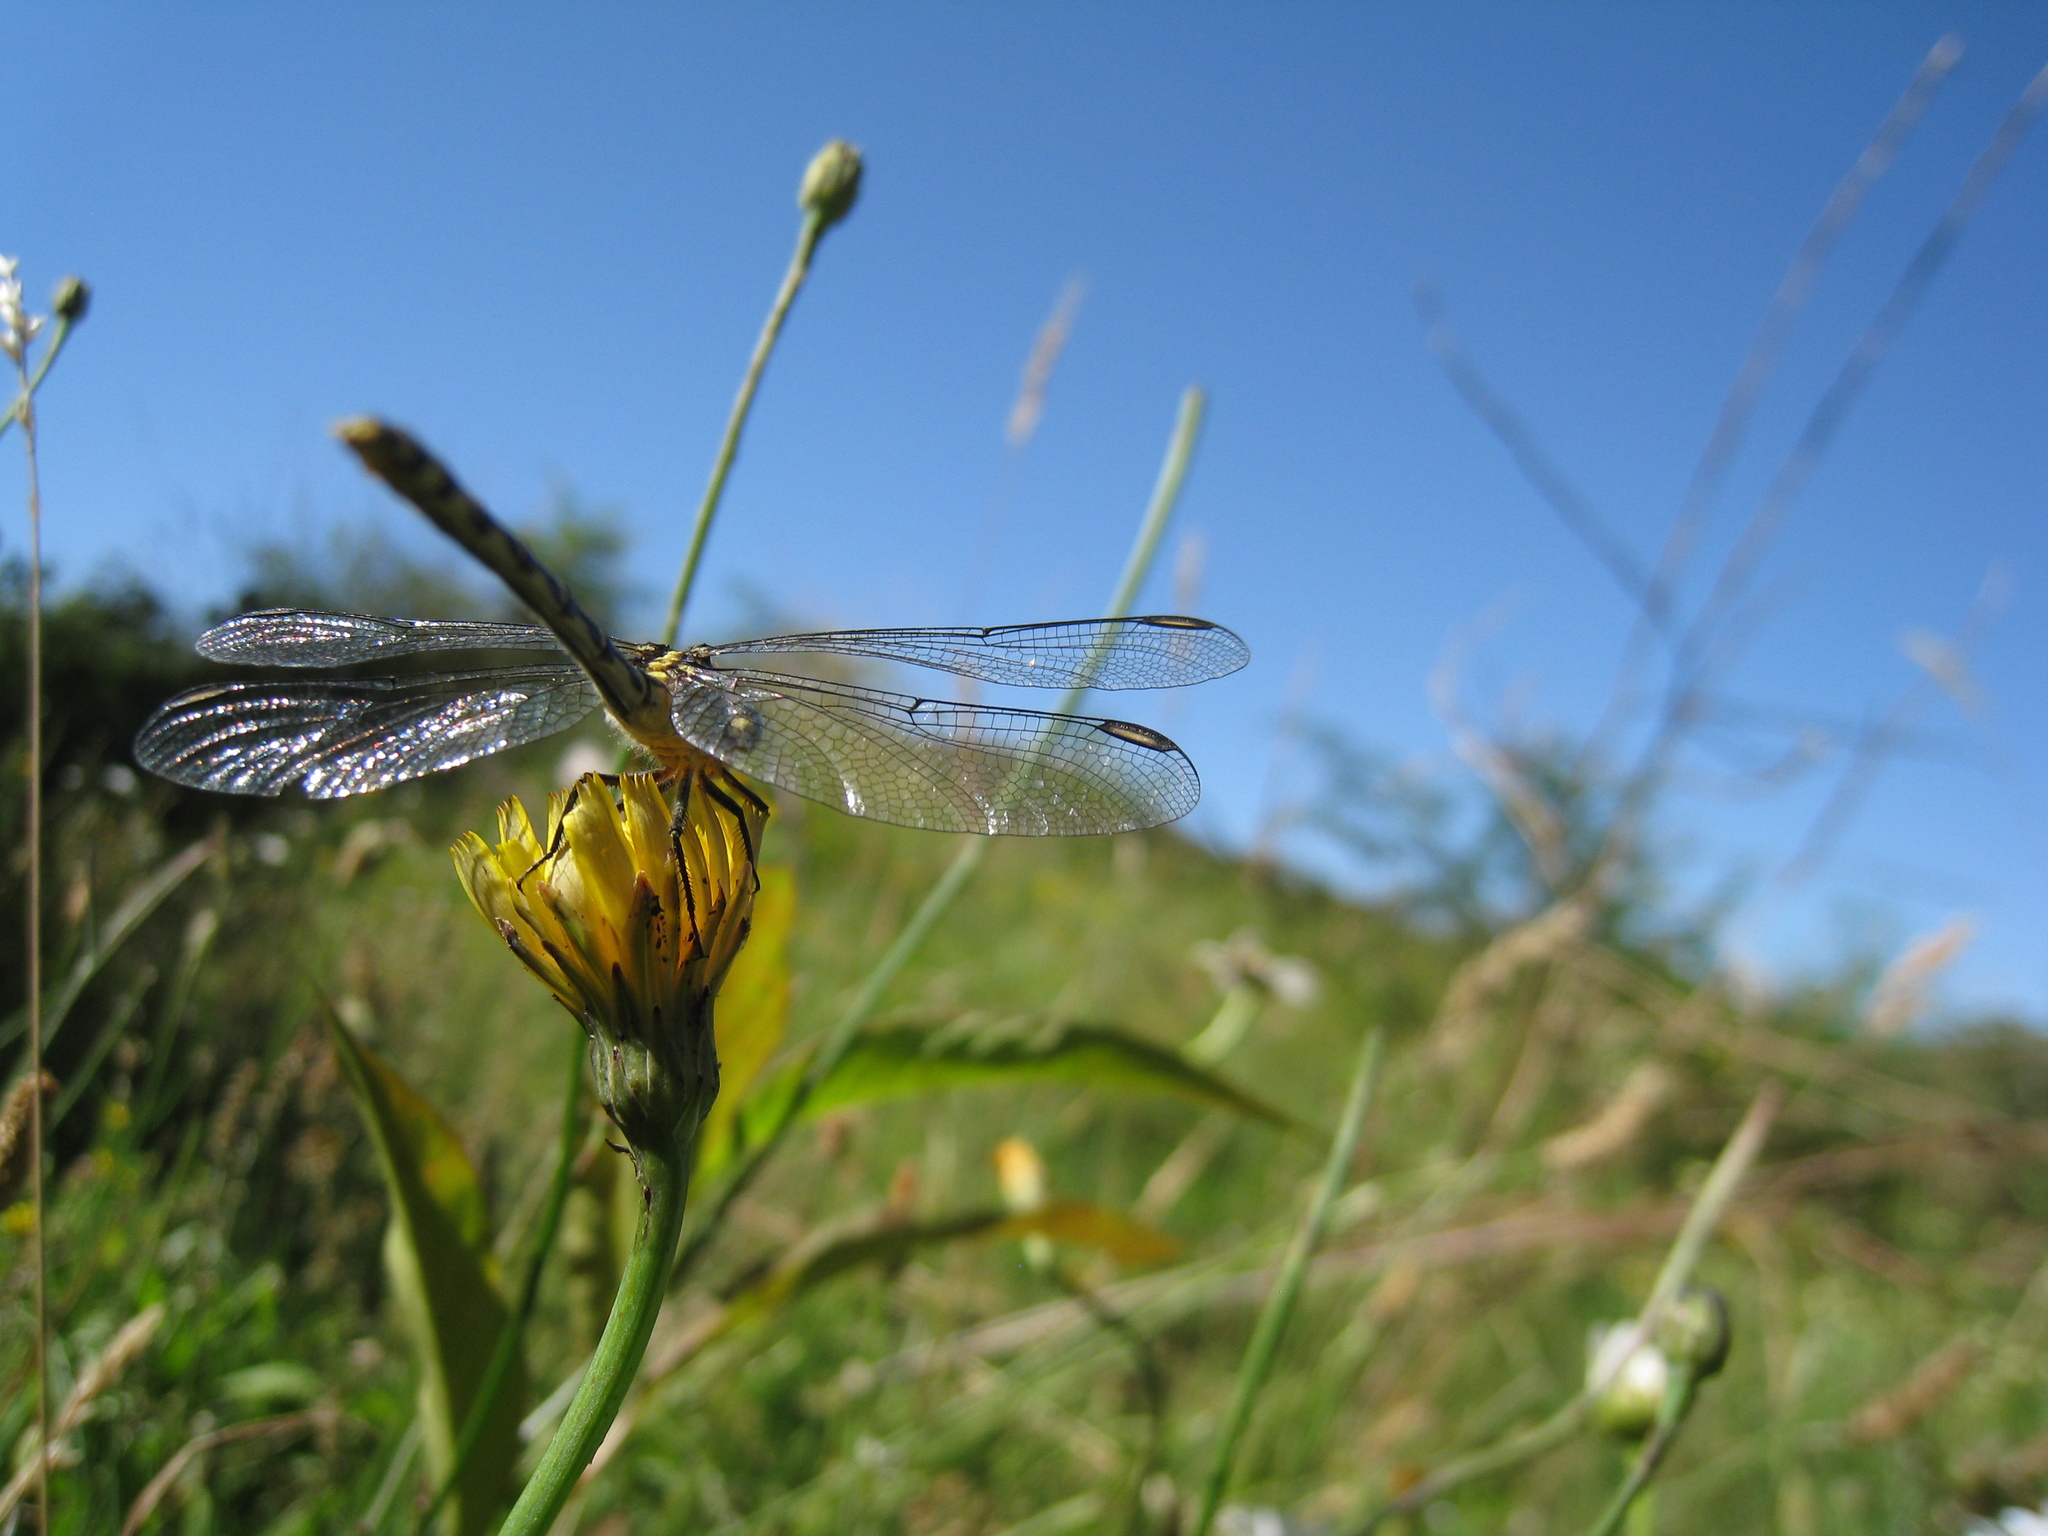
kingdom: Animalia
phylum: Arthropoda
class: Insecta
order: Odonata
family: Gomphidae
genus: Austrogomphus
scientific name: Austrogomphus ochraceus
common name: Jade hunter
